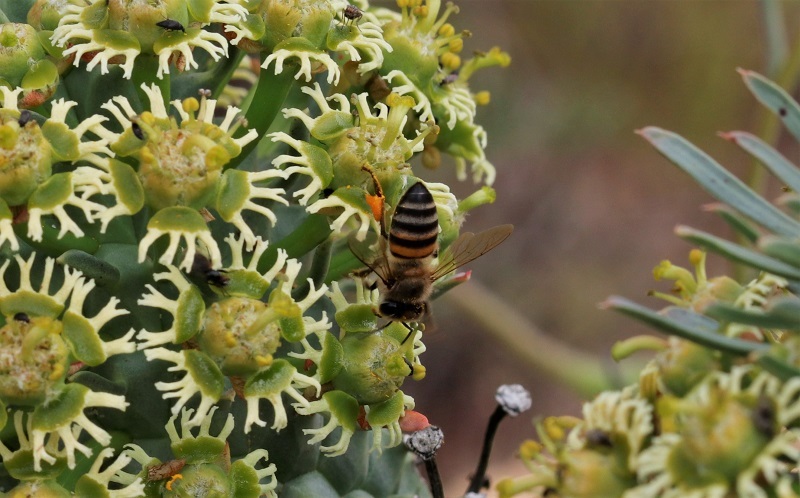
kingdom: Animalia
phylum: Arthropoda
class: Insecta
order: Hymenoptera
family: Apidae
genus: Apis
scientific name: Apis mellifera
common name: Honey bee
